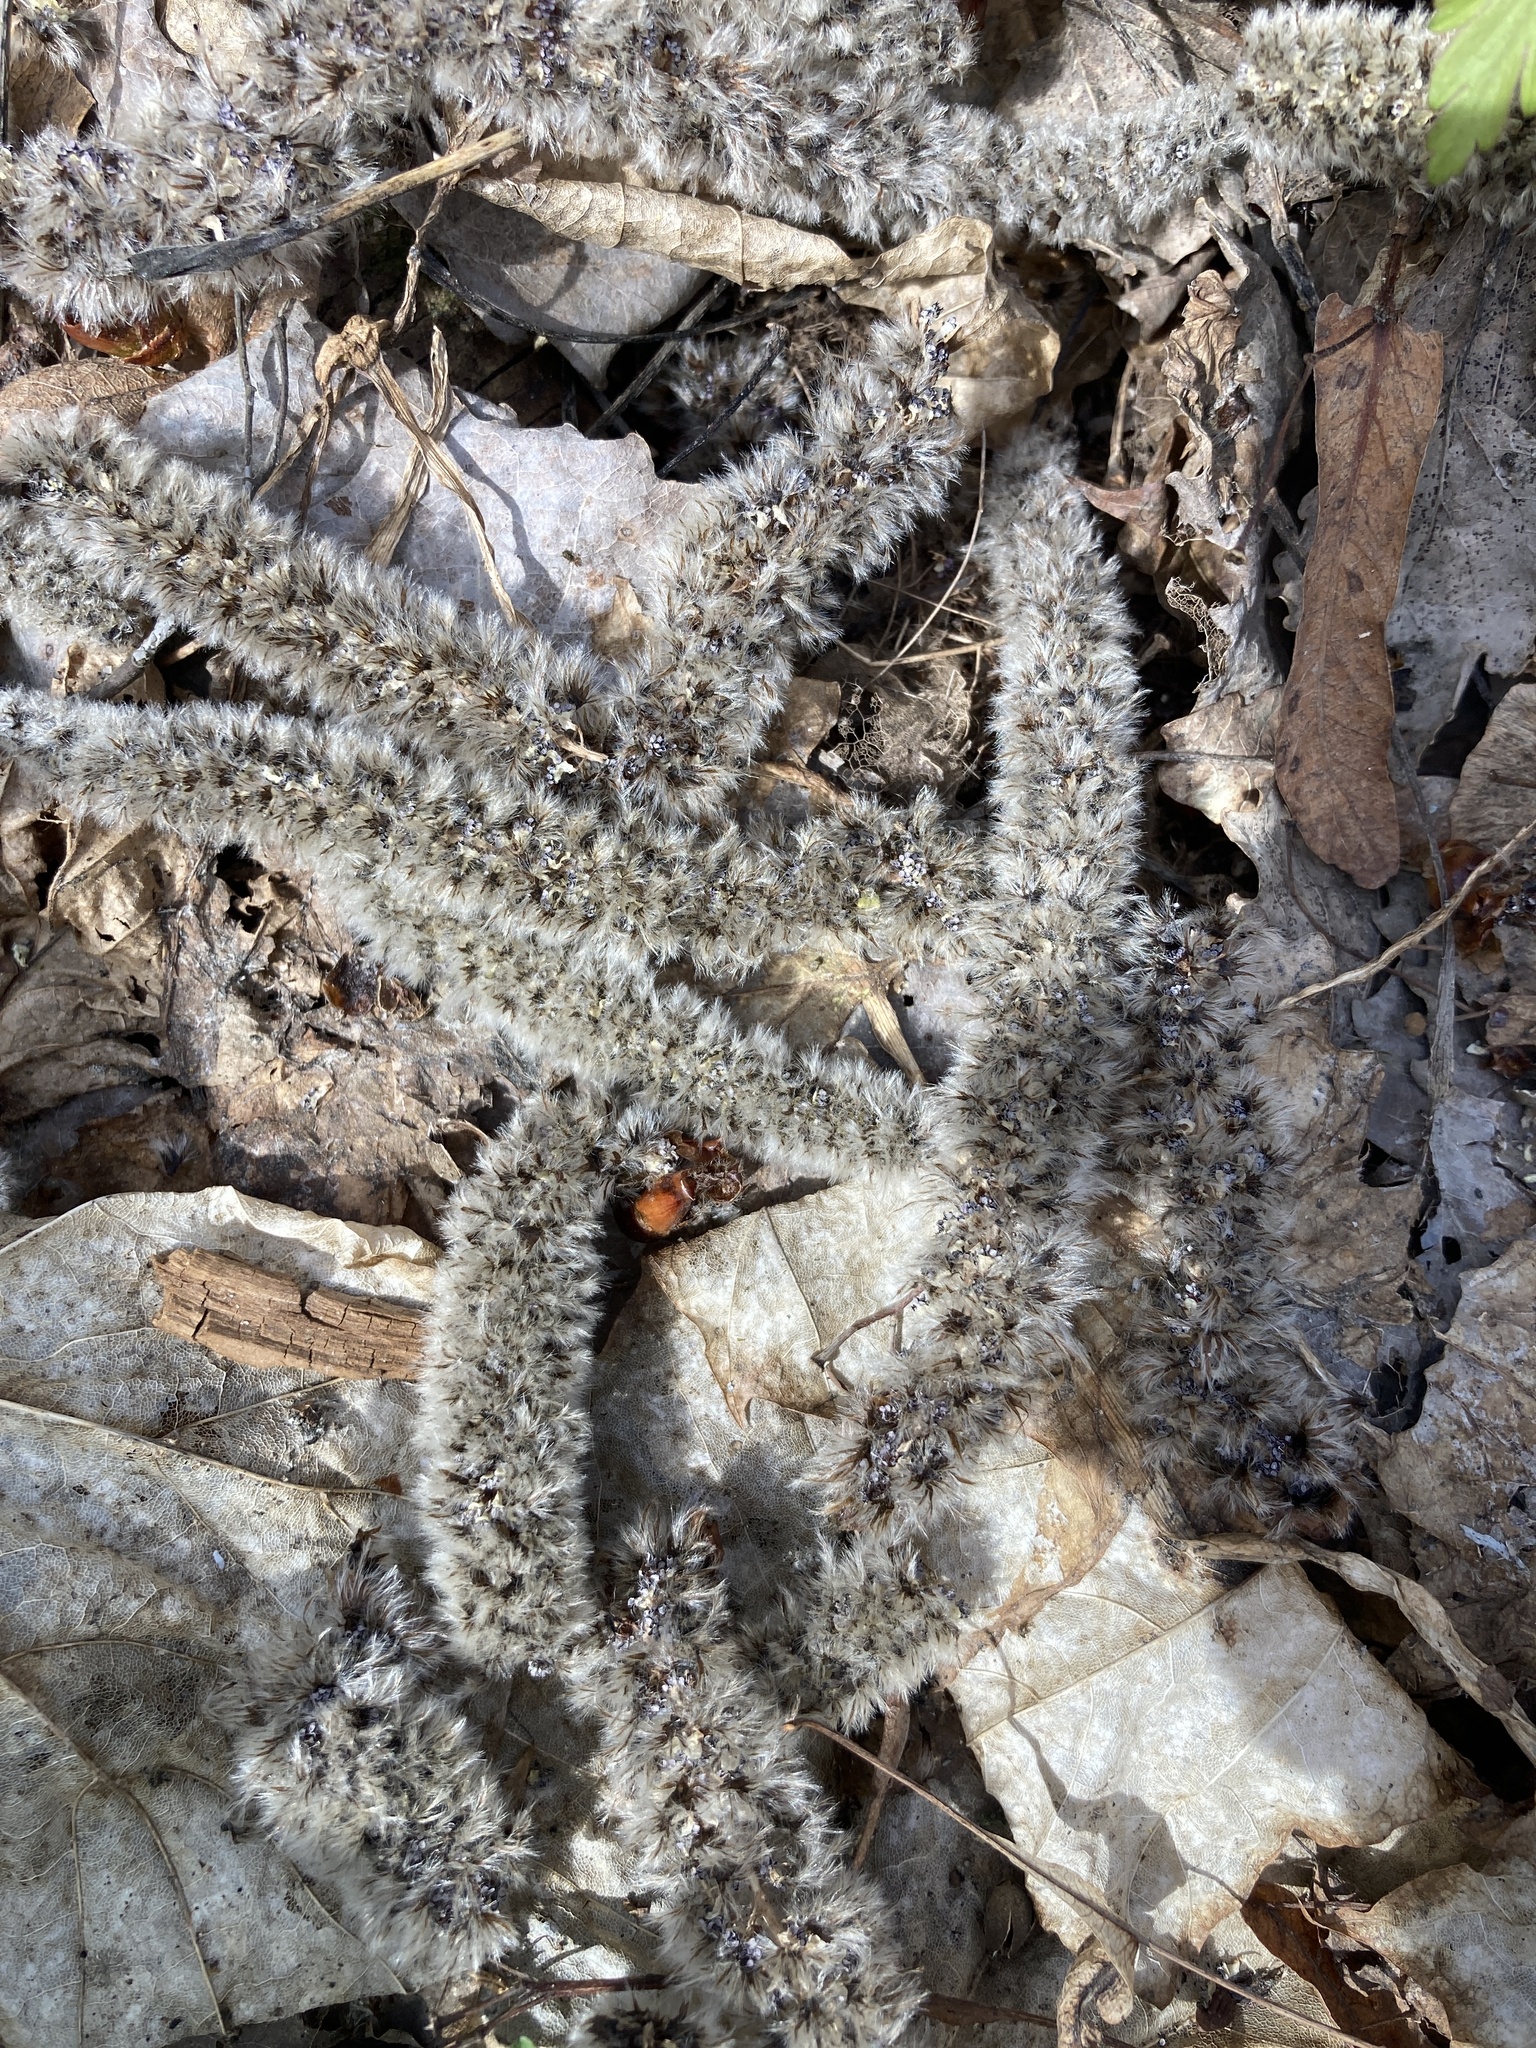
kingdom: Plantae
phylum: Tracheophyta
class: Magnoliopsida
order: Malpighiales
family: Salicaceae
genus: Populus
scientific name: Populus tremula
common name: European aspen
